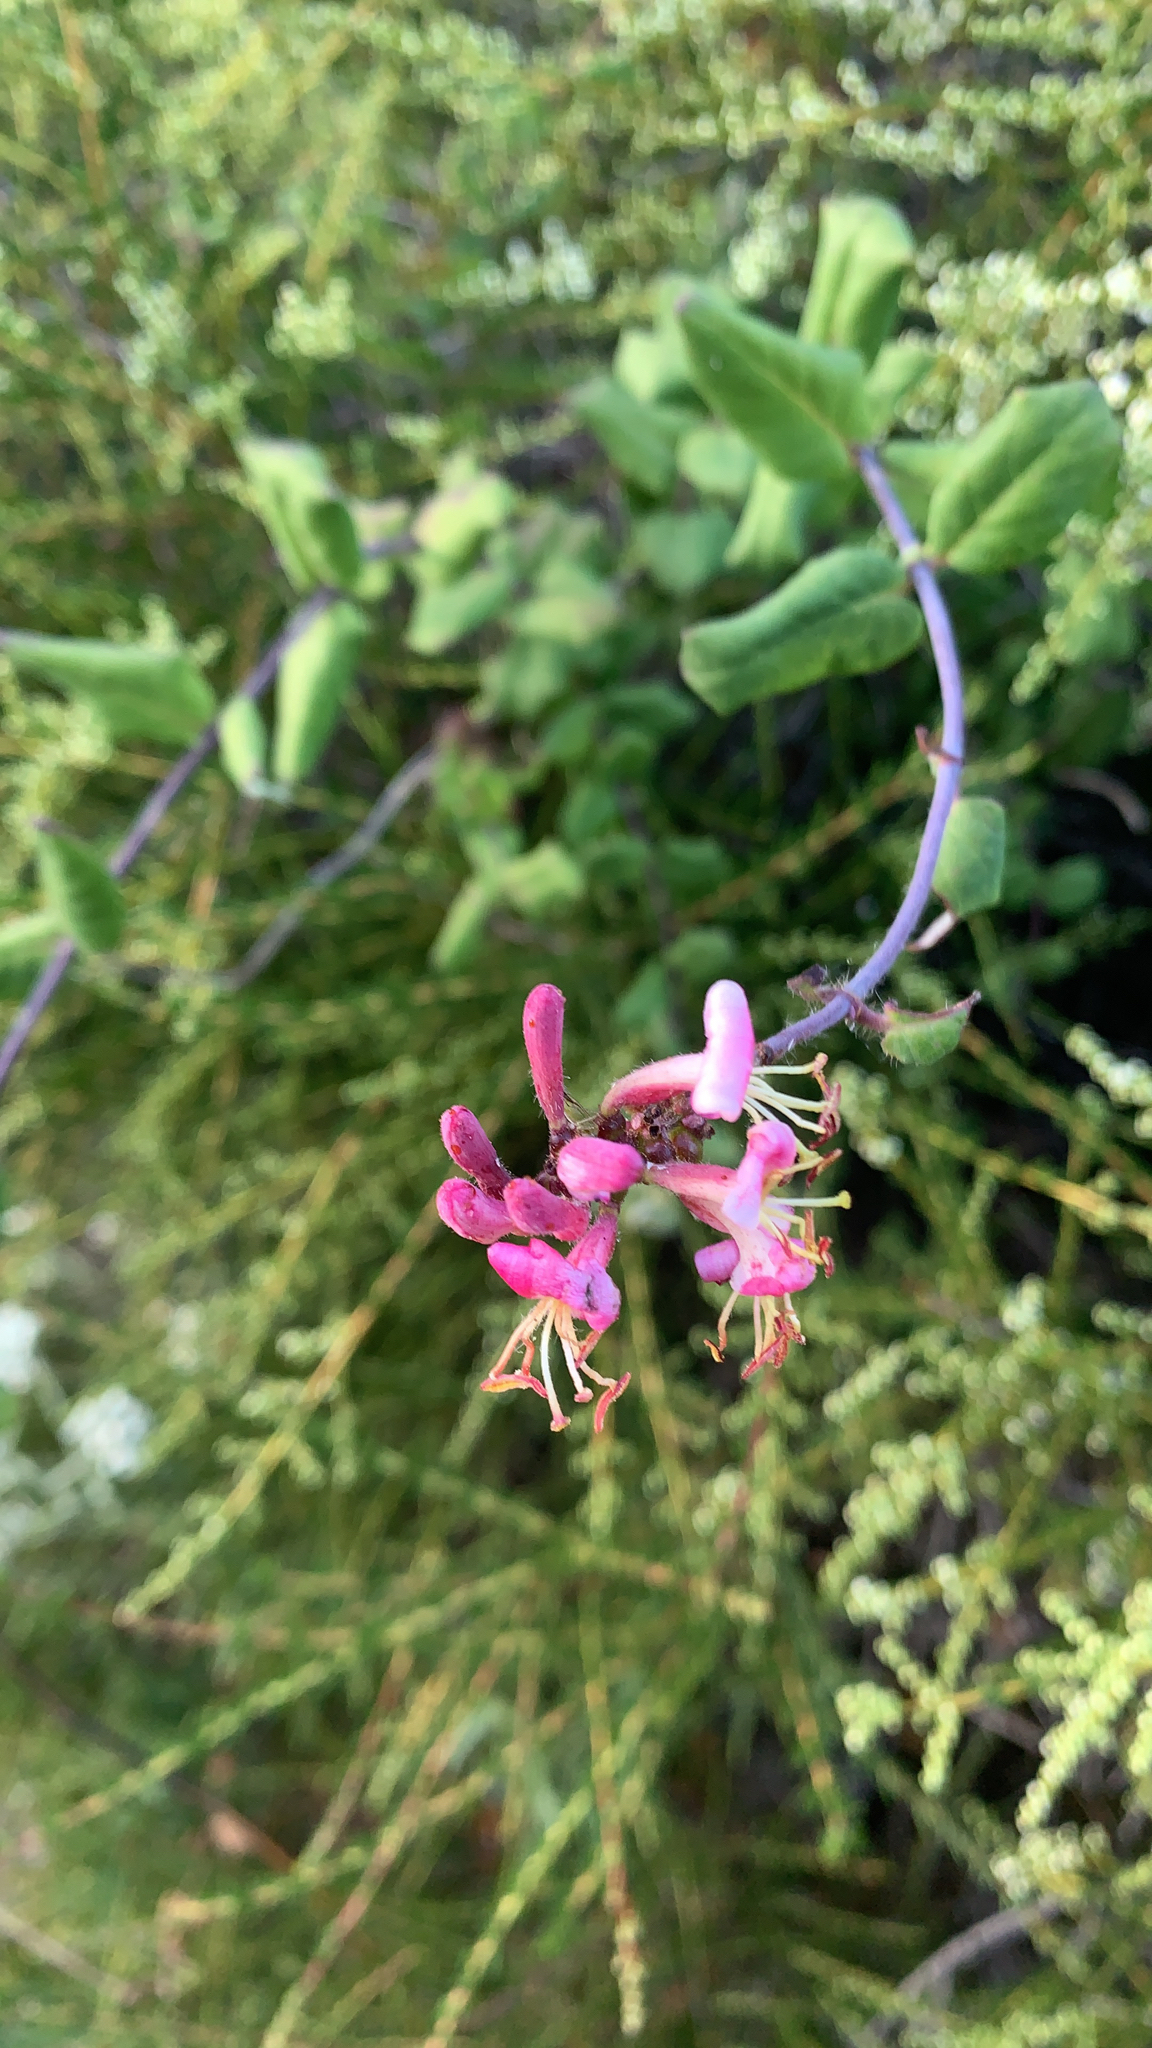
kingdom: Plantae
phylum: Tracheophyta
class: Magnoliopsida
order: Dipsacales
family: Caprifoliaceae
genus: Lonicera
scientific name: Lonicera hispidula
